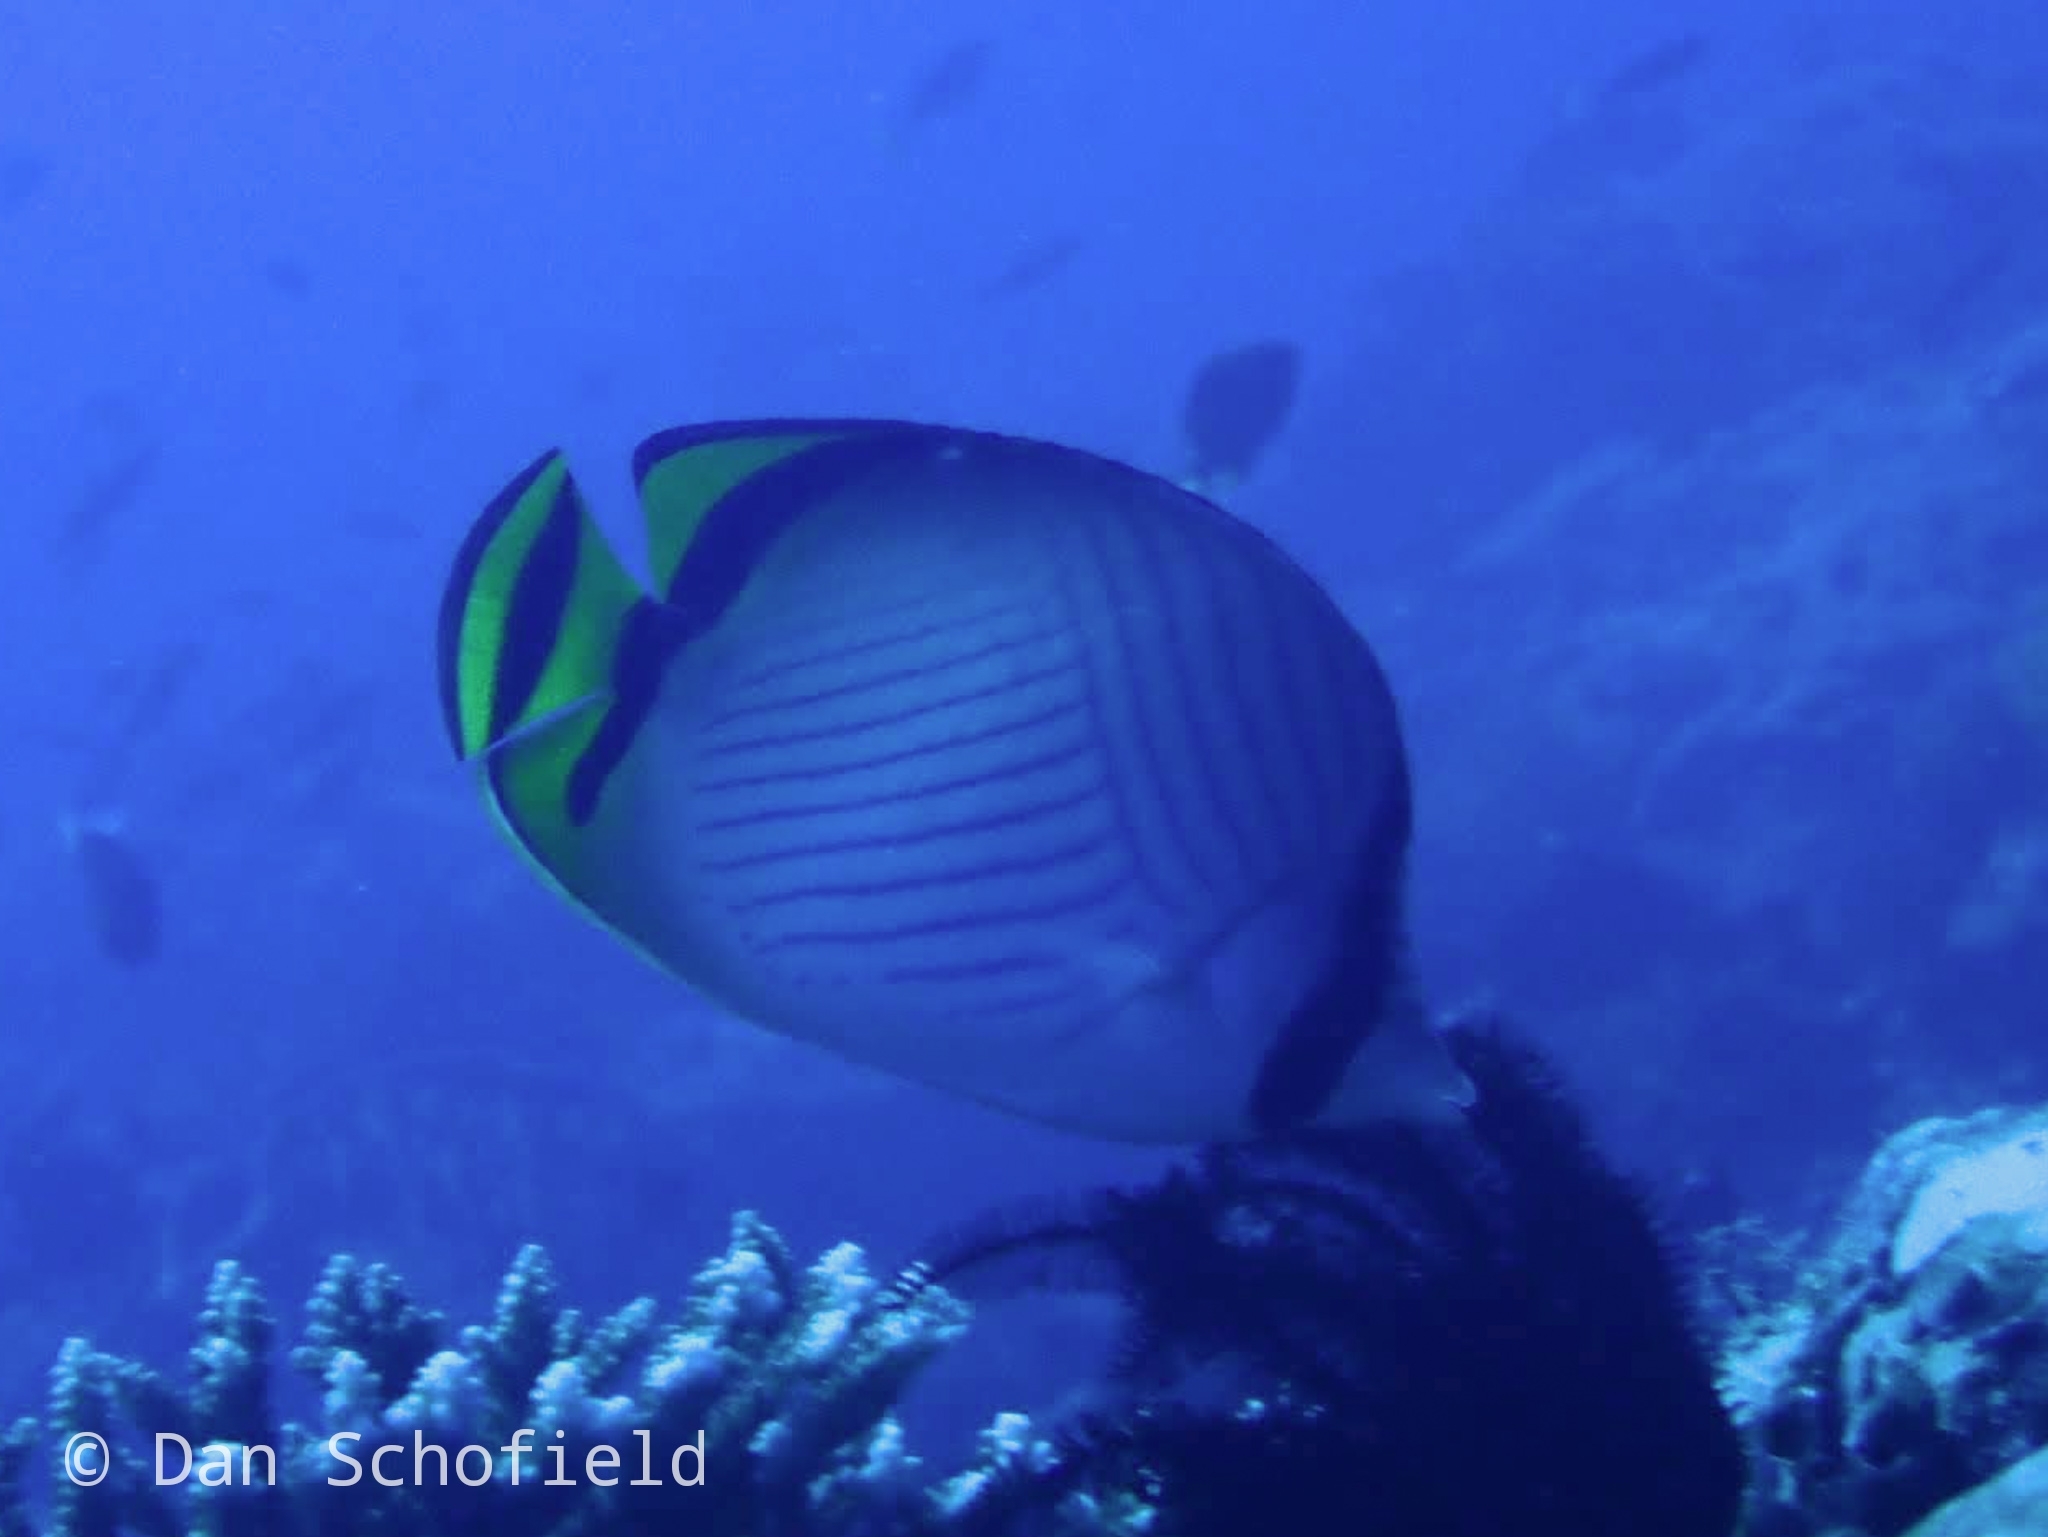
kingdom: Animalia
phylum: Chordata
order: Perciformes
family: Chaetodontidae
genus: Chaetodon
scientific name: Chaetodon vagabundus
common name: Vagabond butterflyfish
